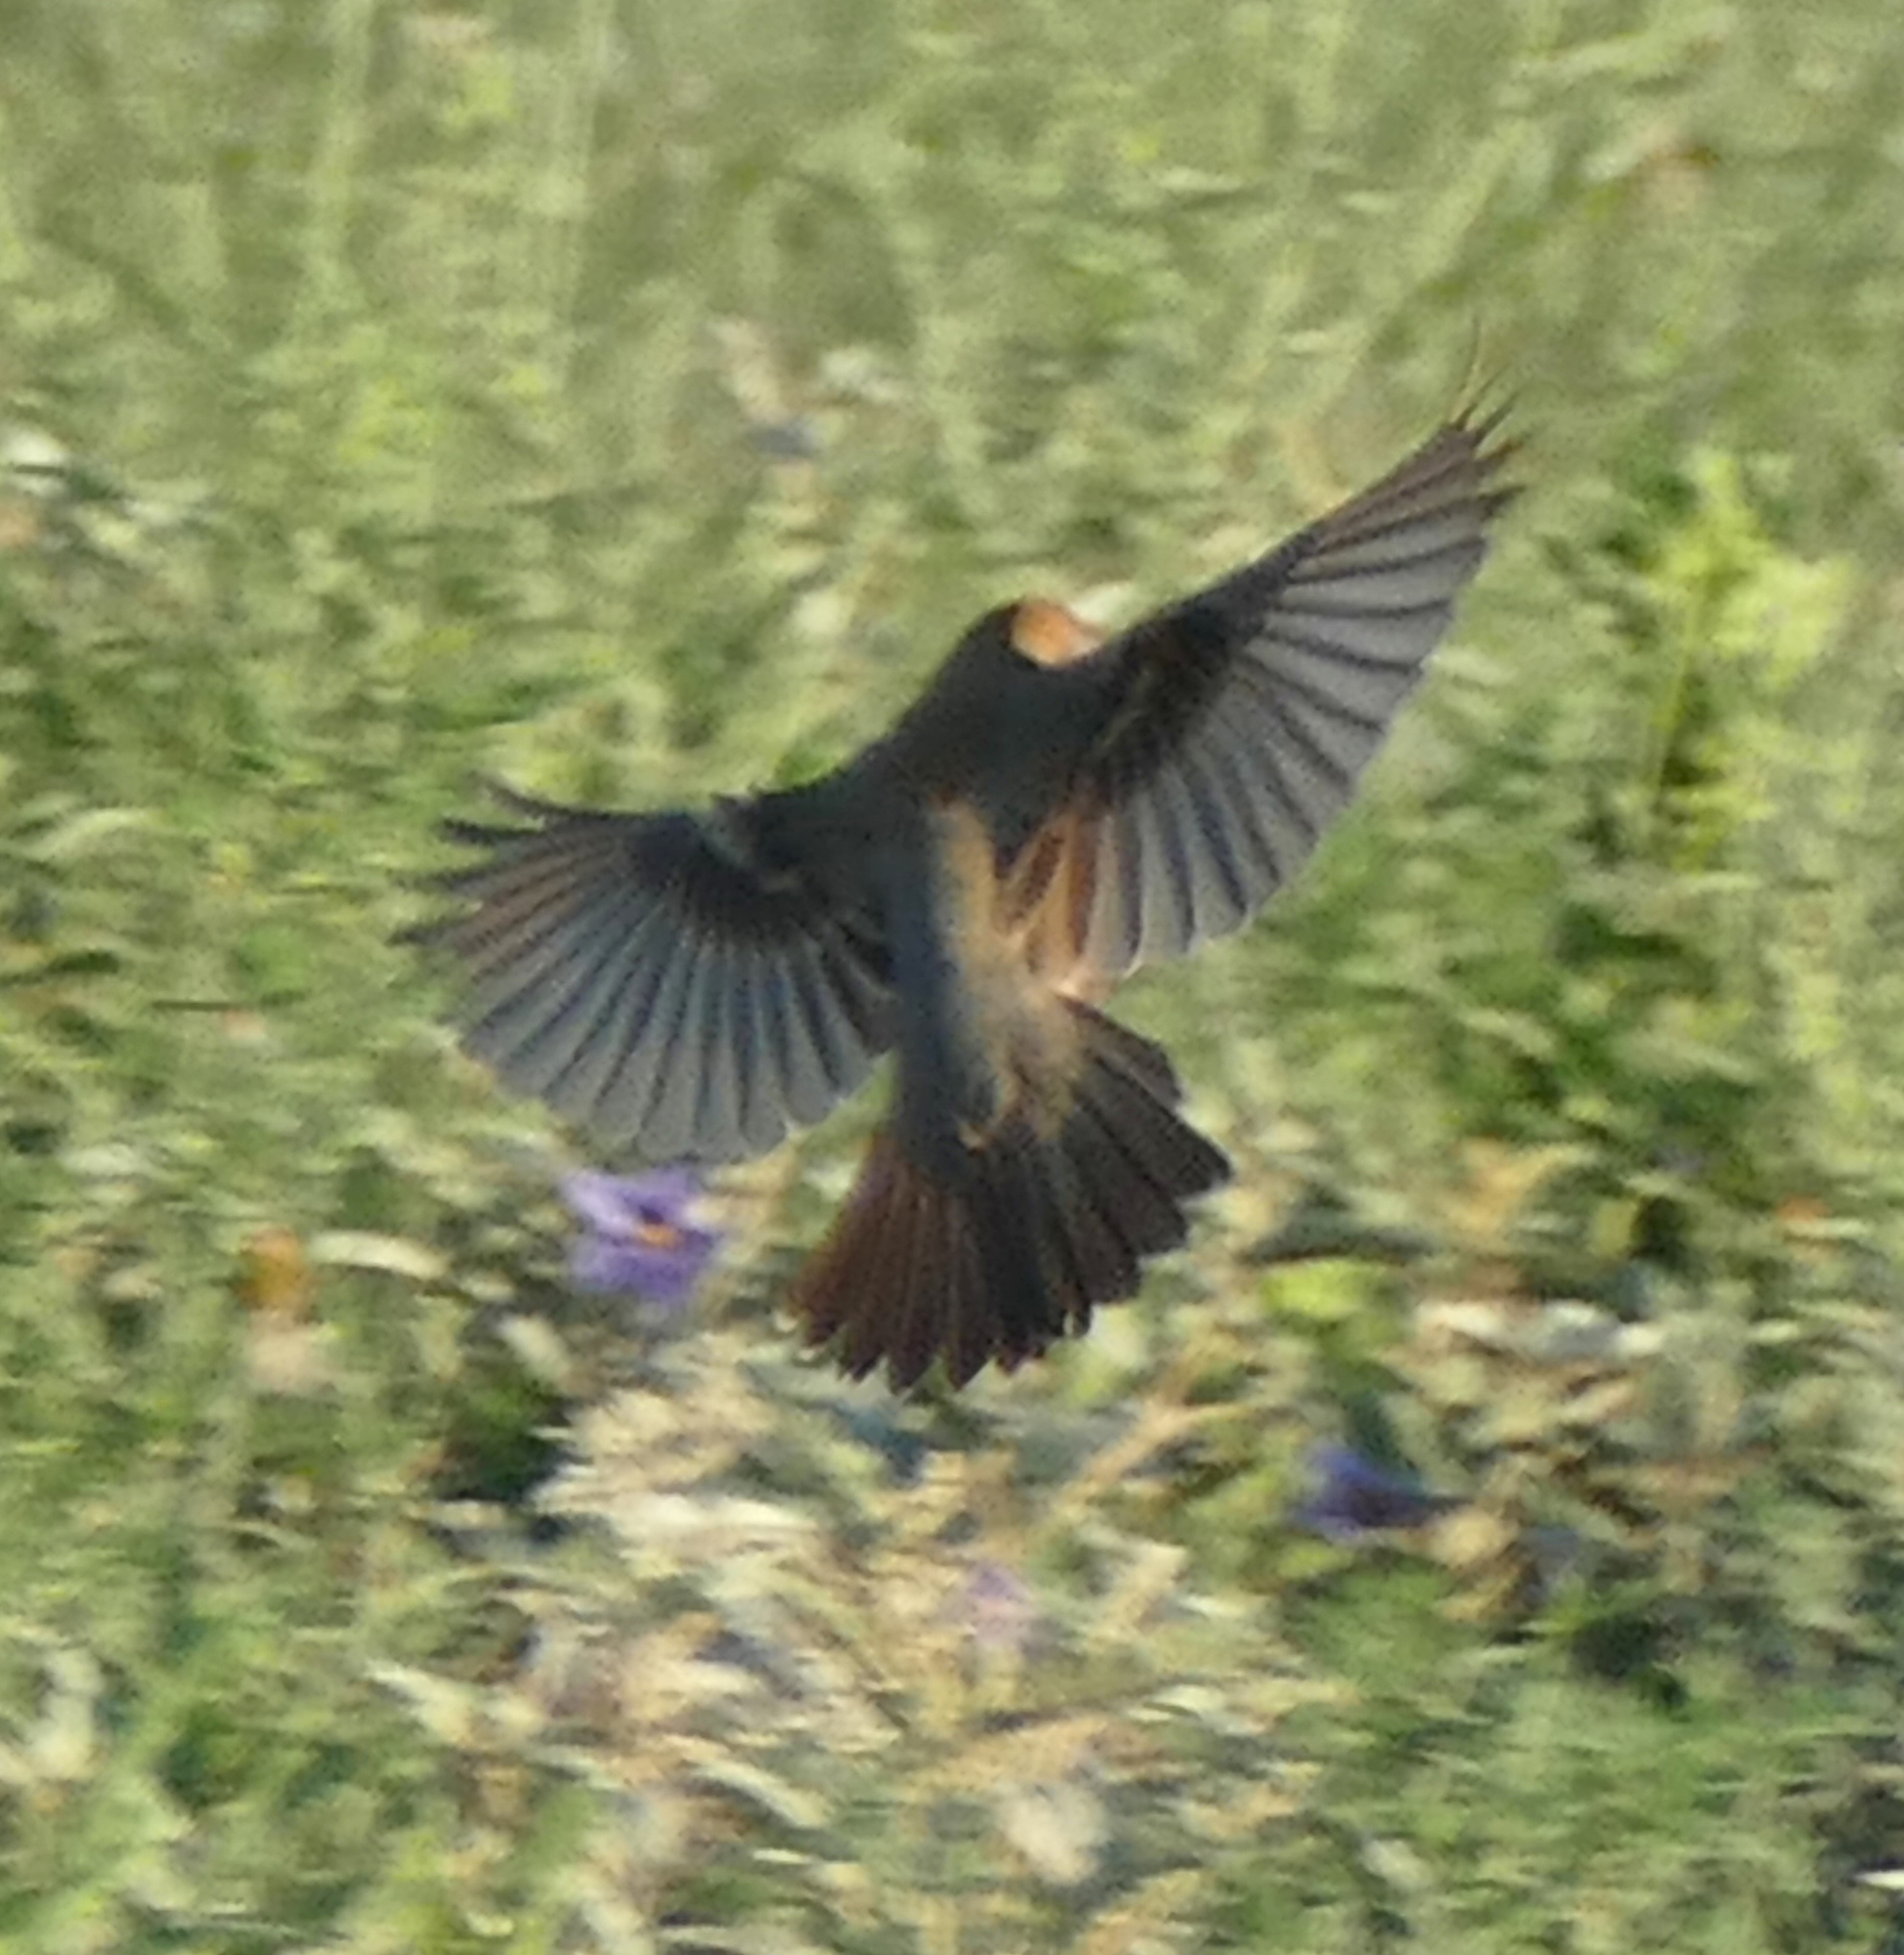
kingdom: Animalia
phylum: Chordata
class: Aves
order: Passeriformes
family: Cardinalidae
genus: Passerina
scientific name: Passerina caerulea
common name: Blue grosbeak
